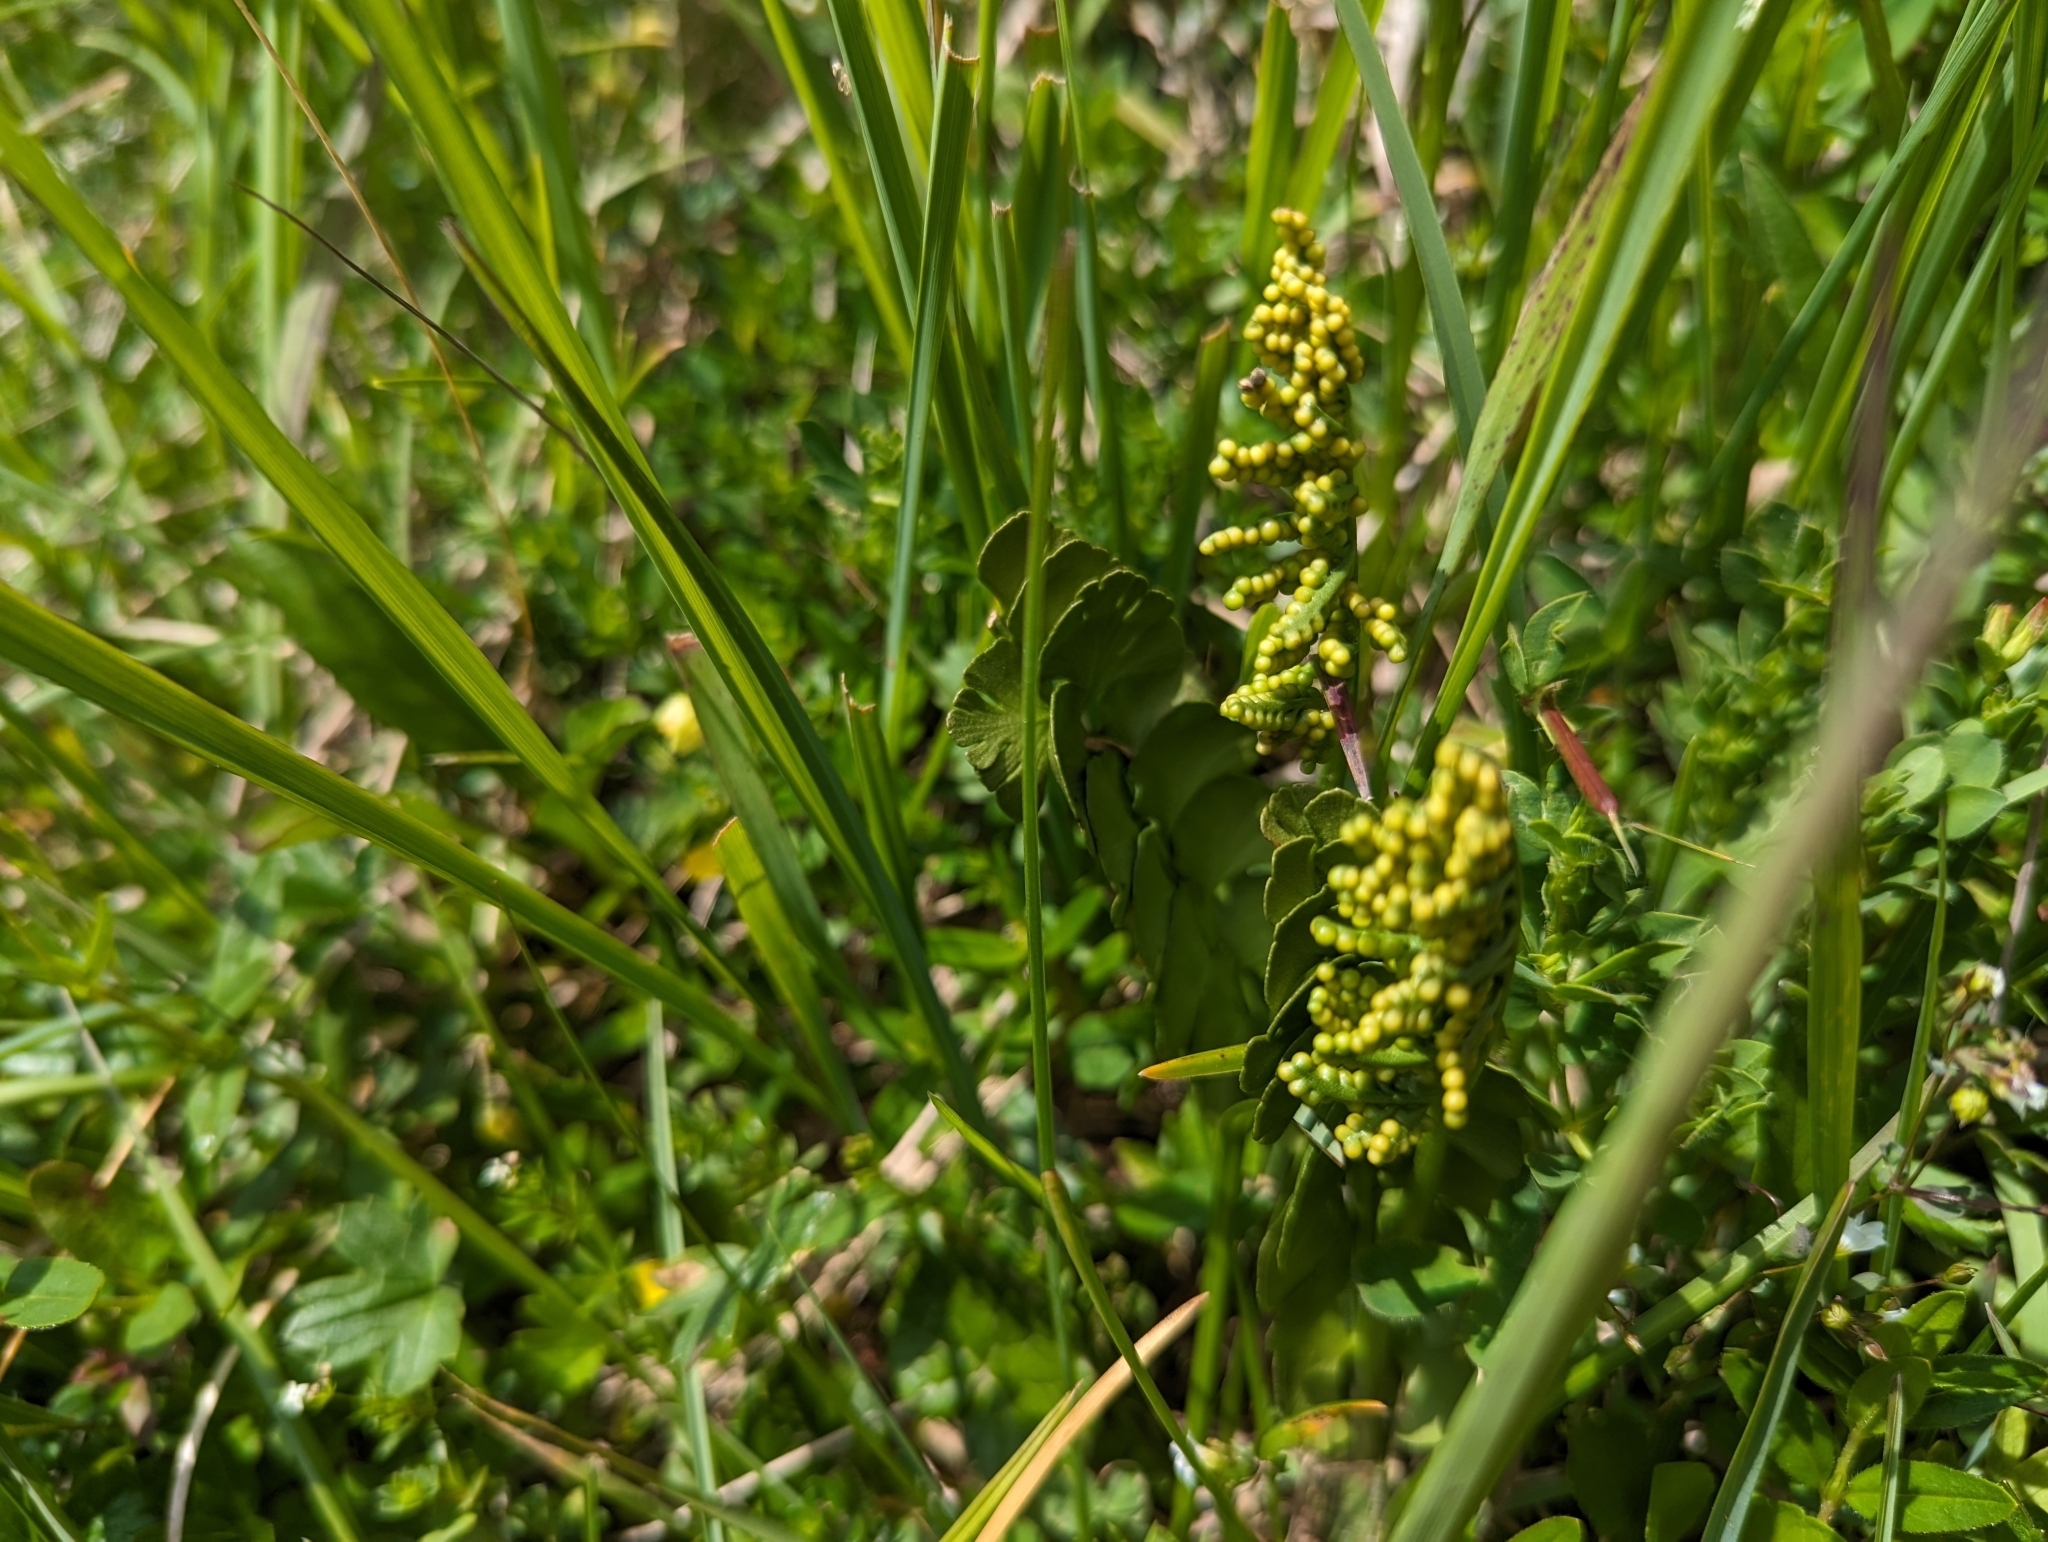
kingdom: Plantae
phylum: Tracheophyta
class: Polypodiopsida
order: Ophioglossales
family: Ophioglossaceae
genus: Botrychium
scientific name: Botrychium lunaria
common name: Moonwort
